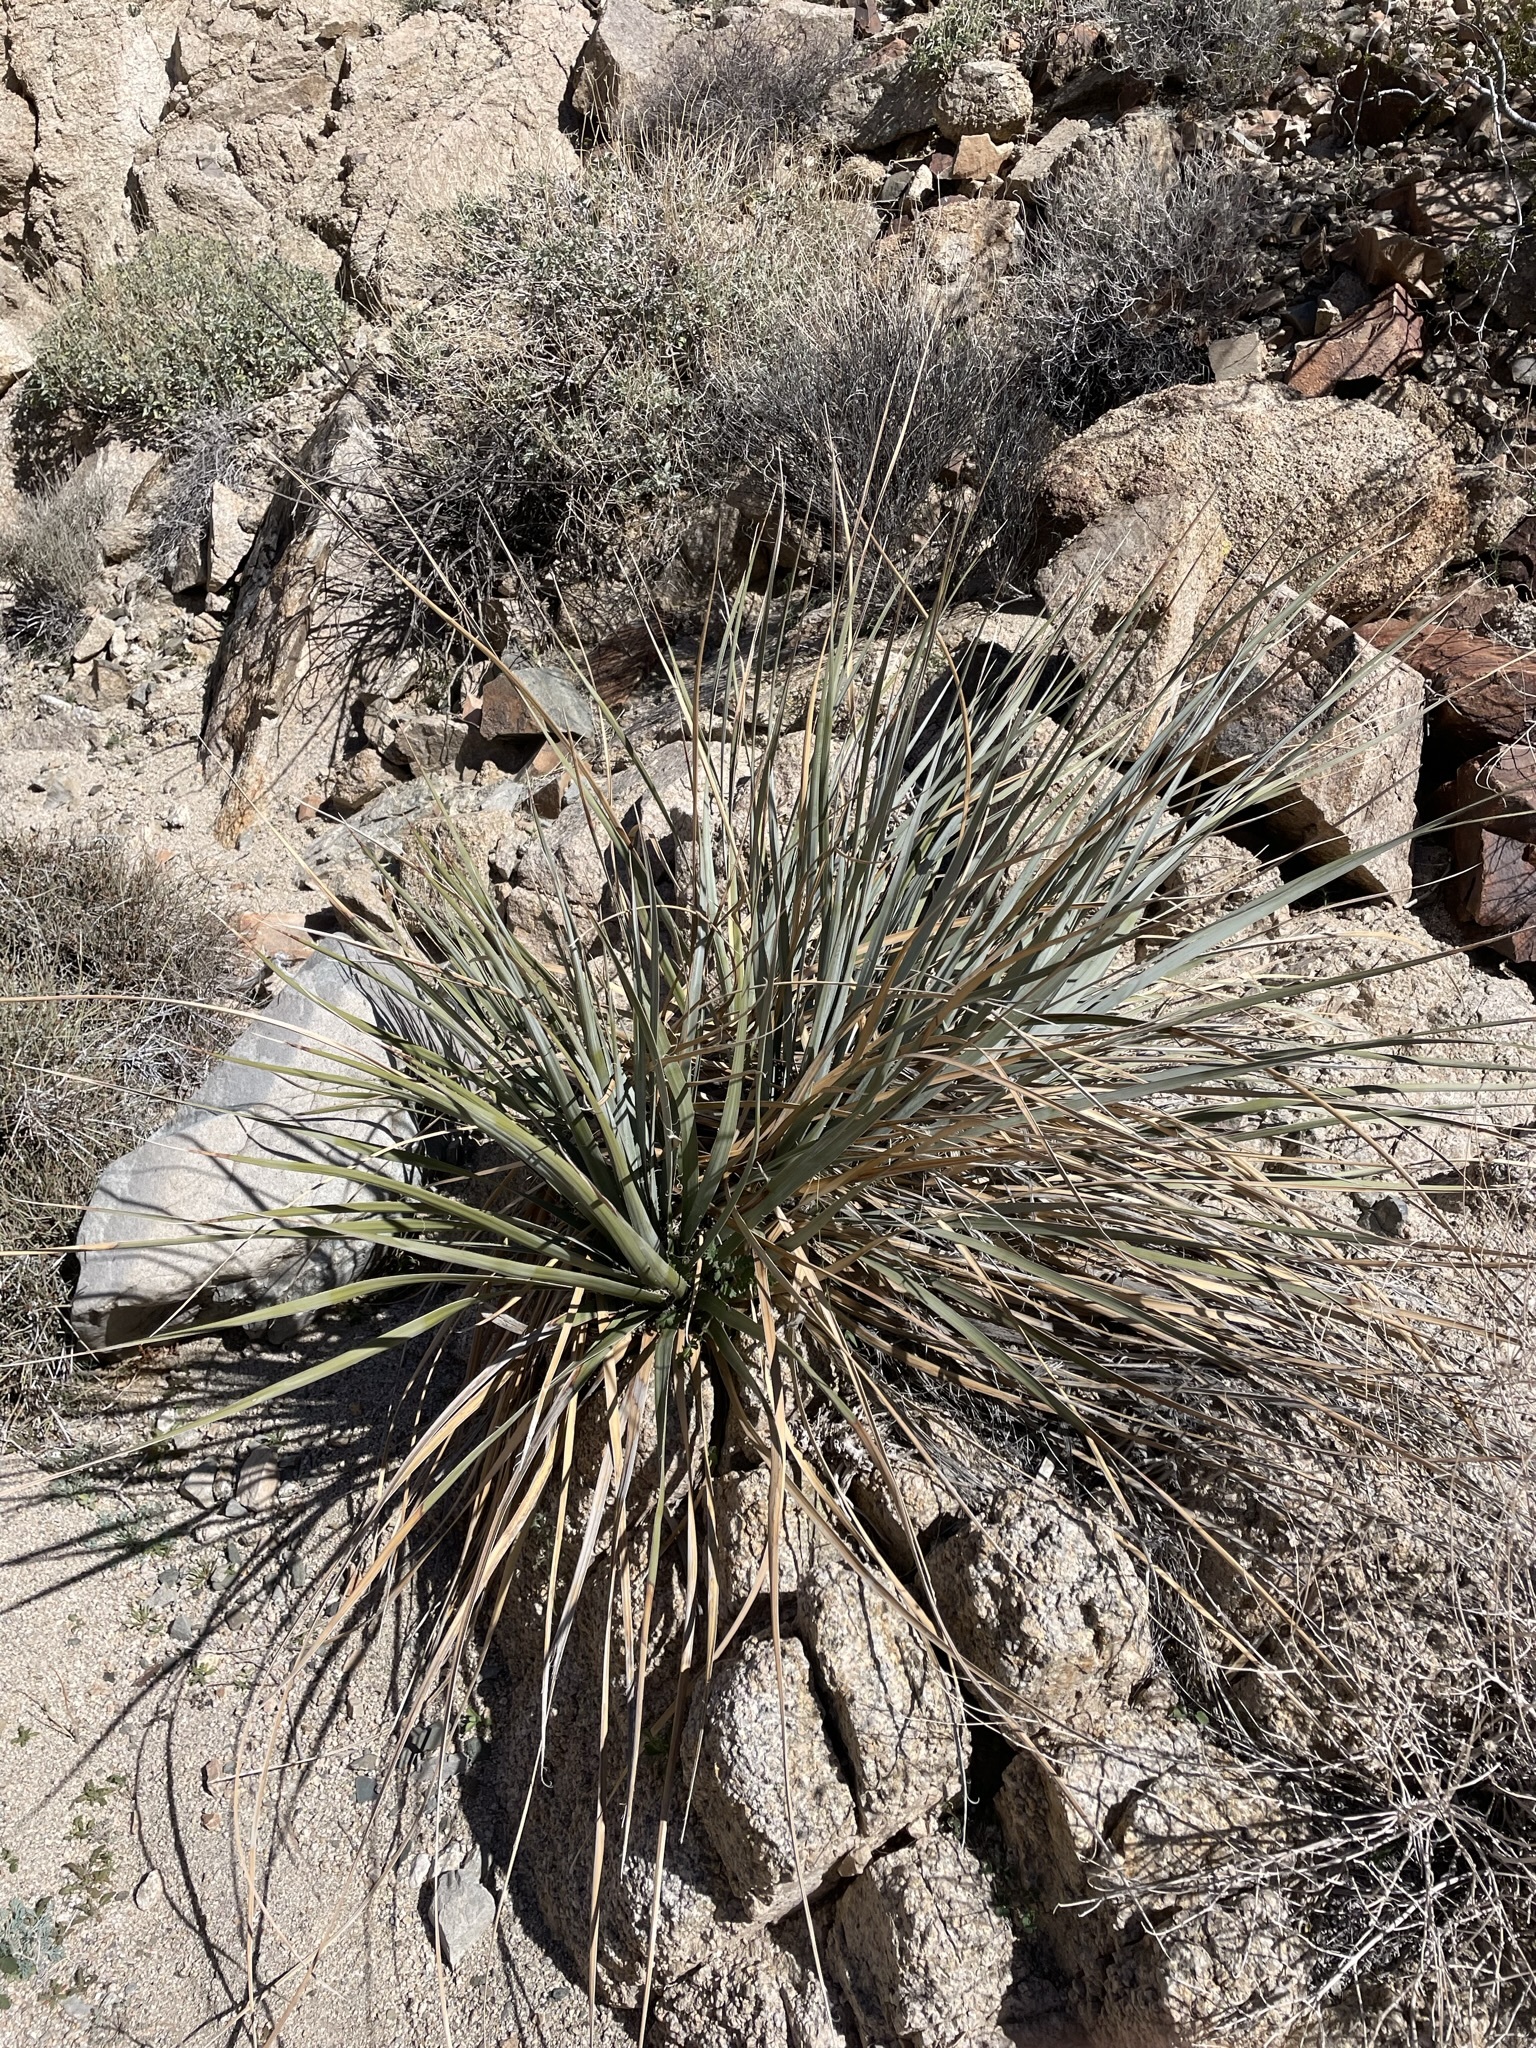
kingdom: Plantae
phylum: Tracheophyta
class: Liliopsida
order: Asparagales
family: Asparagaceae
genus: Nolina
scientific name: Nolina bigelovii
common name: Bigelow bear-grass
